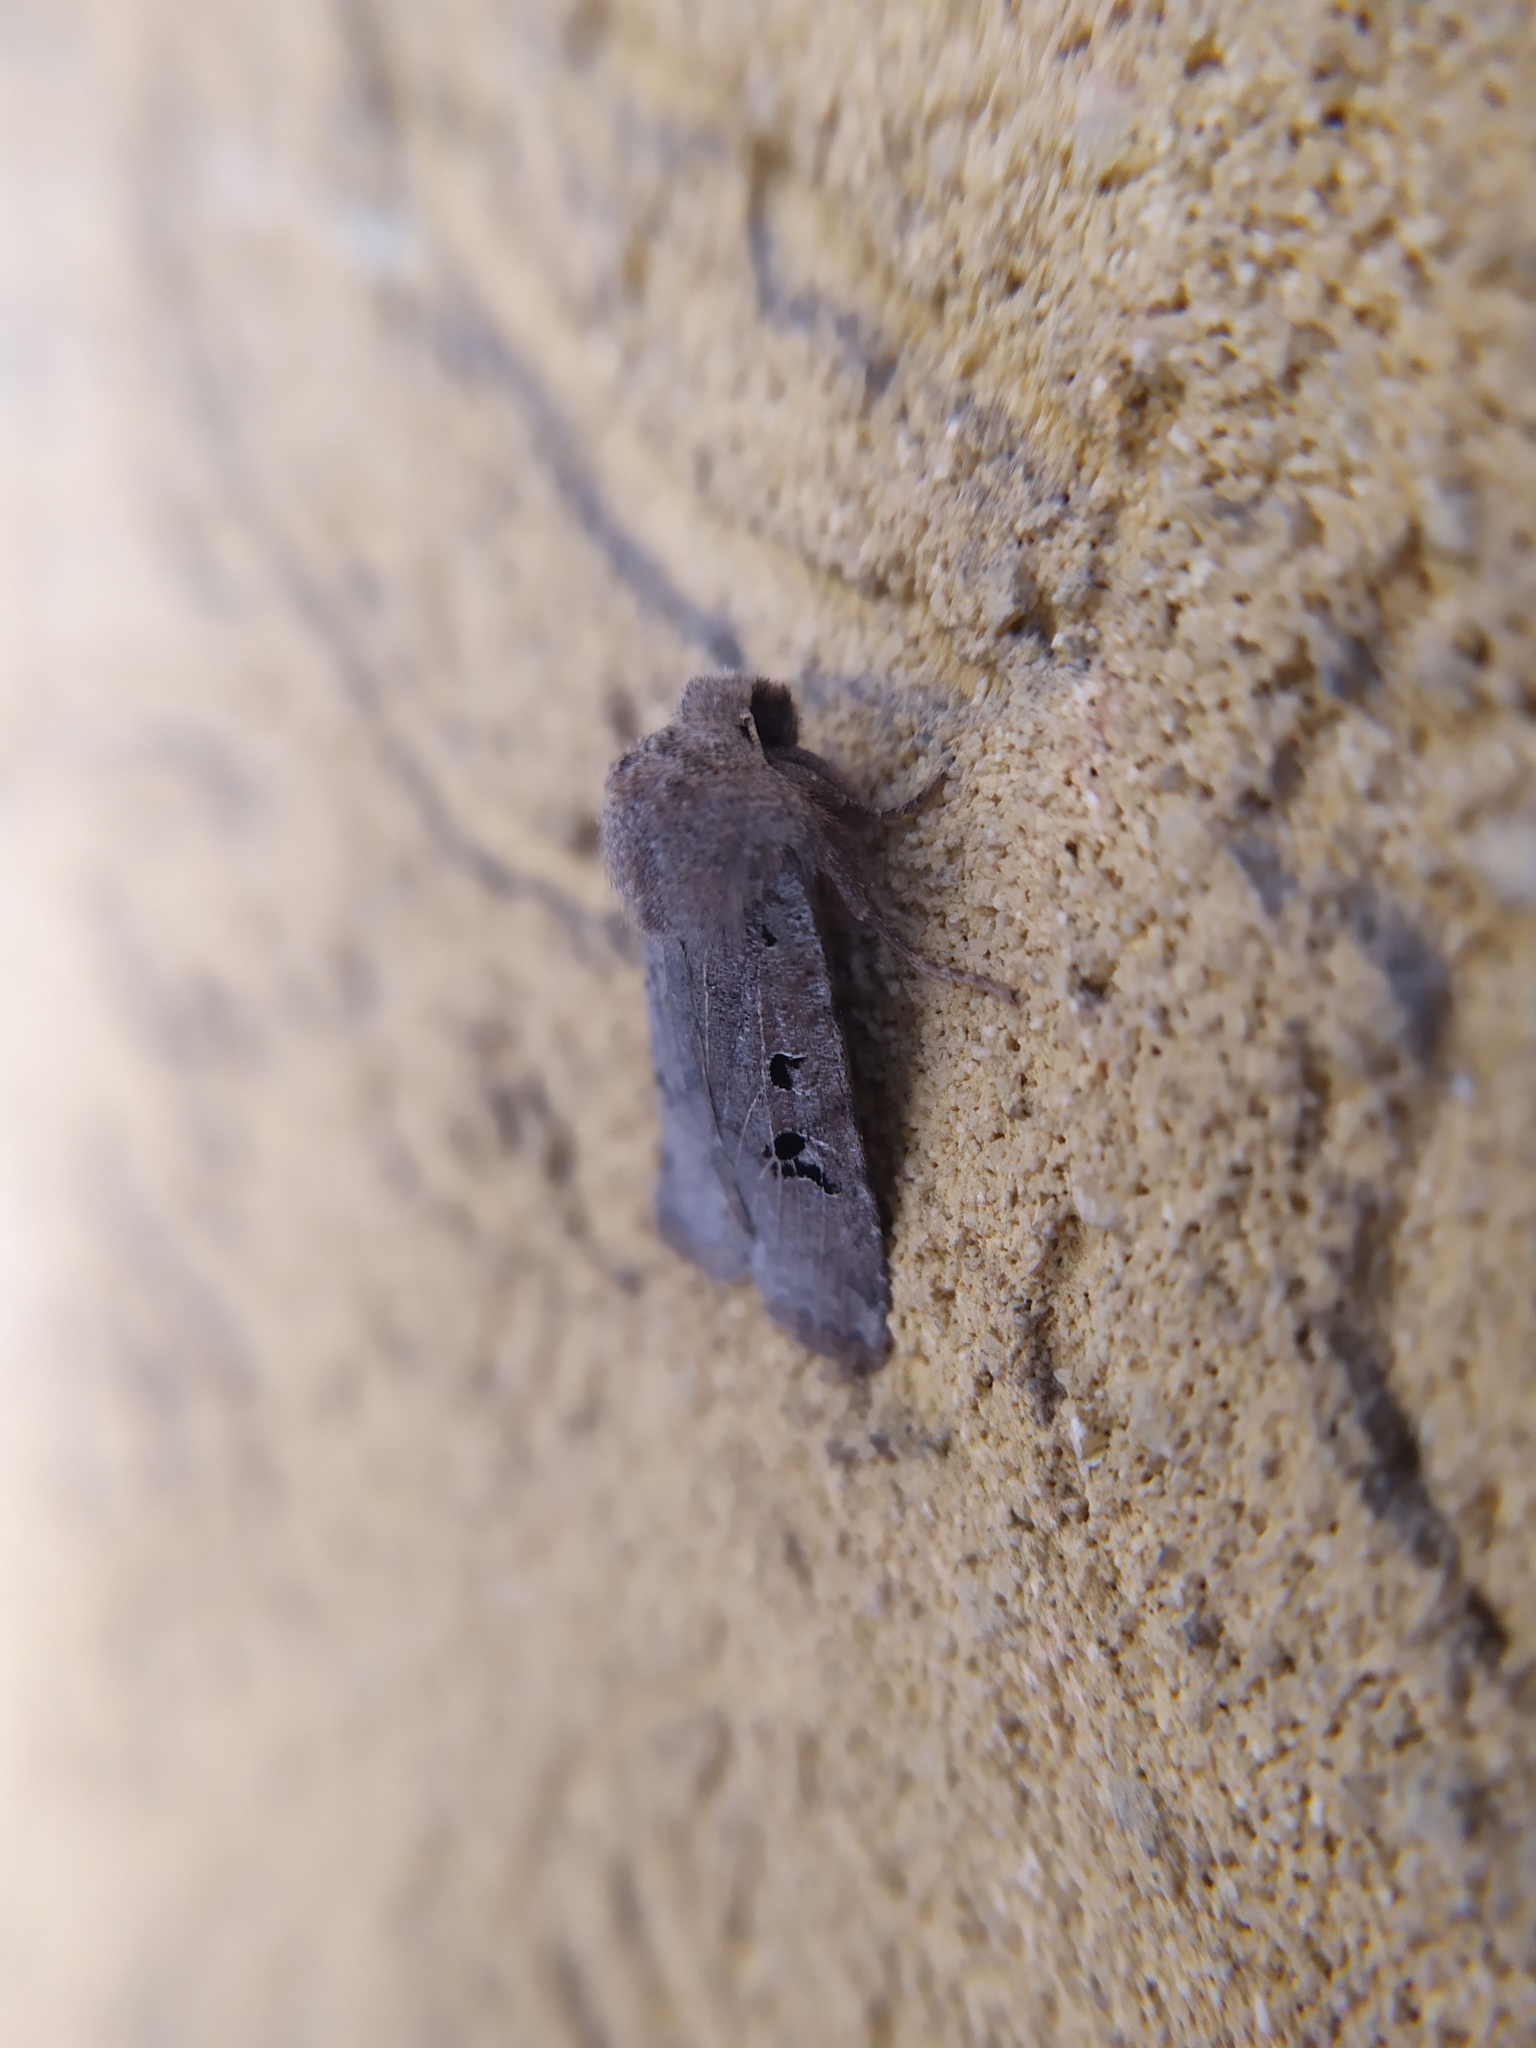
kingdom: Animalia
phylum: Arthropoda
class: Insecta
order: Lepidoptera
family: Noctuidae
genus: Conistra
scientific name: Conistra rubiginosa
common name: Black-spotted chestnut
